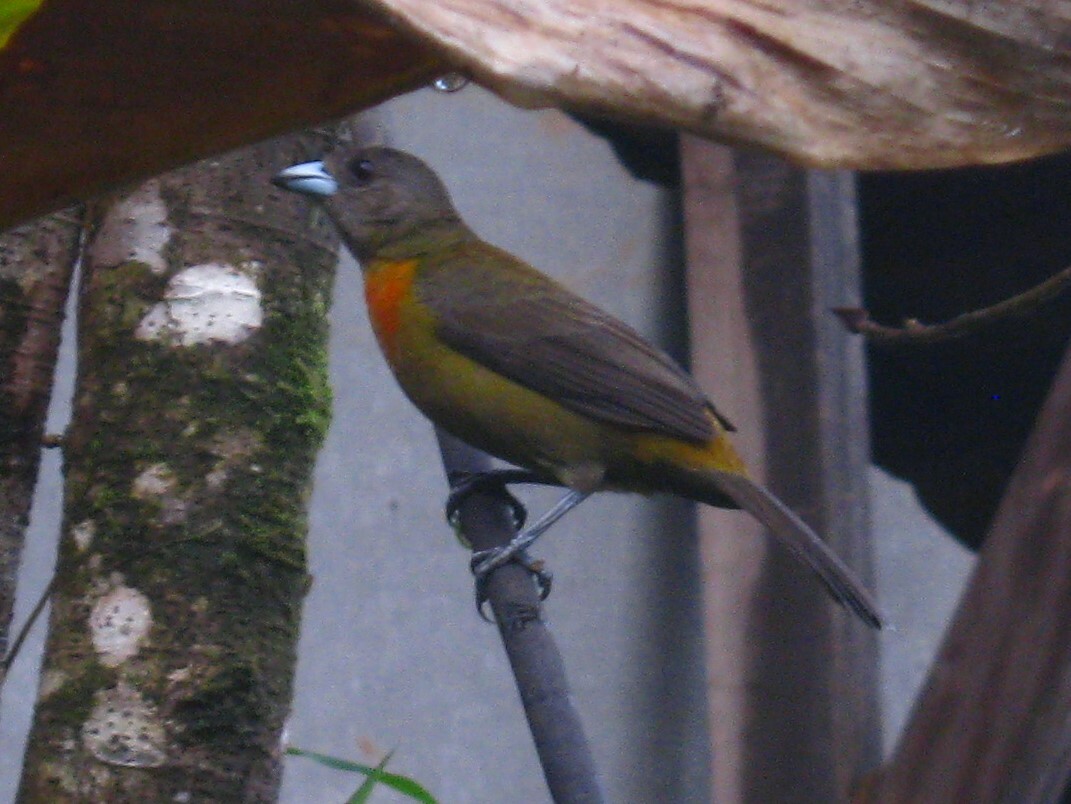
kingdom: Animalia
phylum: Chordata
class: Aves
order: Passeriformes
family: Thraupidae
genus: Ramphocelus
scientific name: Ramphocelus passerinii
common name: Passerini's tanager
